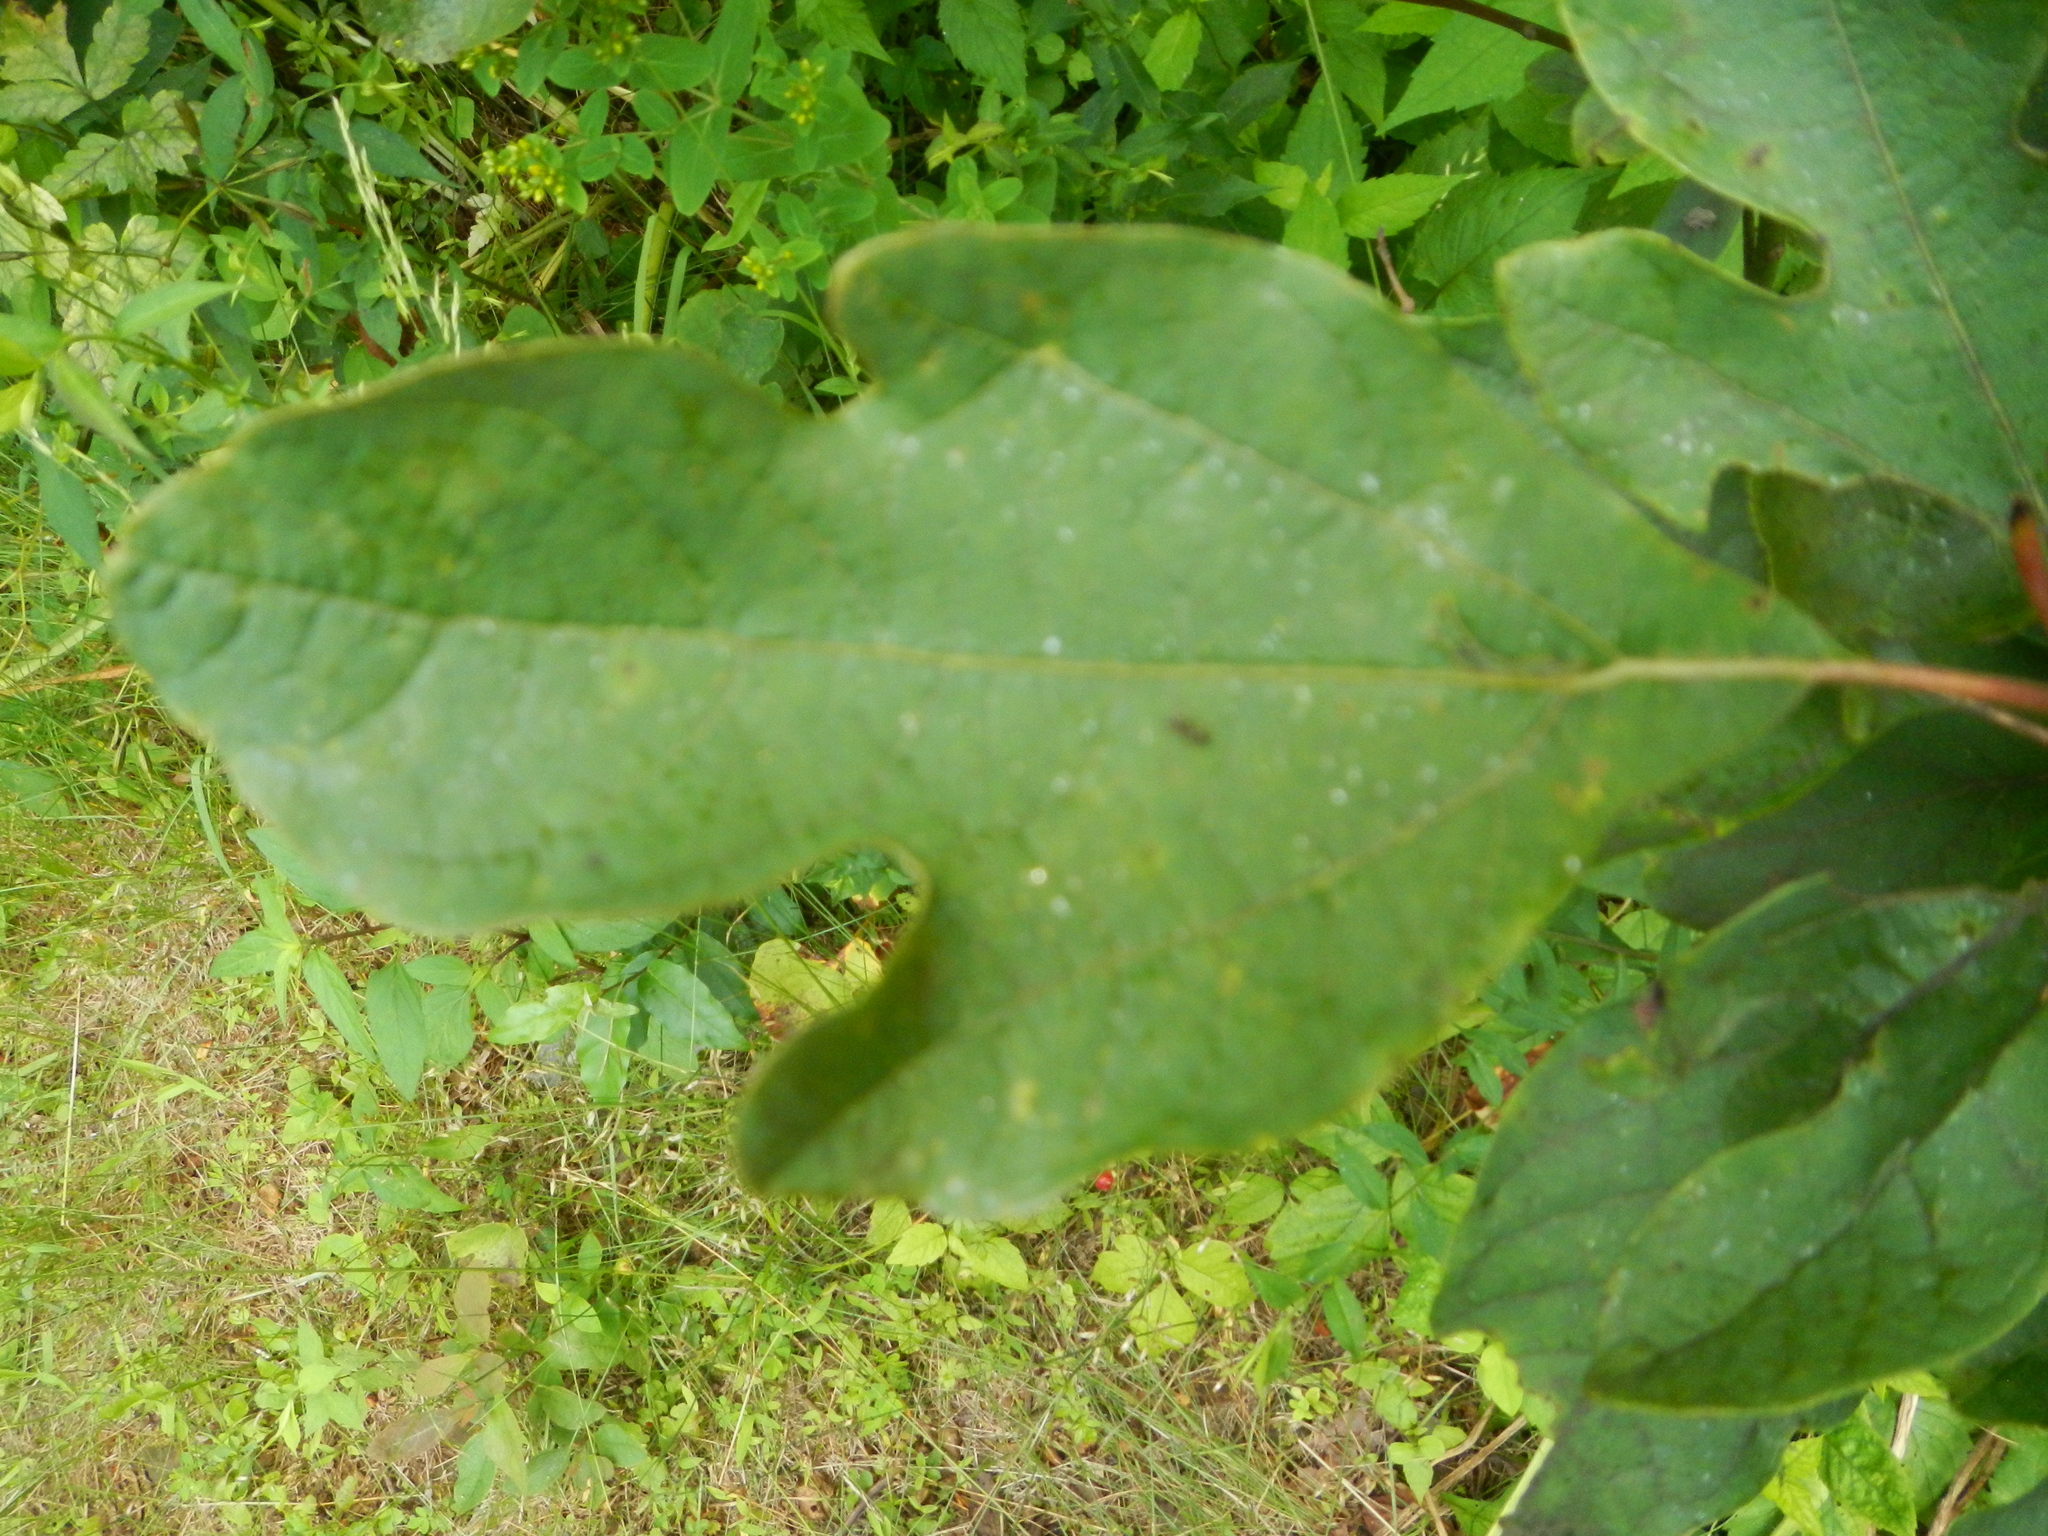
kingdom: Plantae
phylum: Tracheophyta
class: Magnoliopsida
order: Laurales
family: Lauraceae
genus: Sassafras
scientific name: Sassafras albidum
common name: Sassafras
